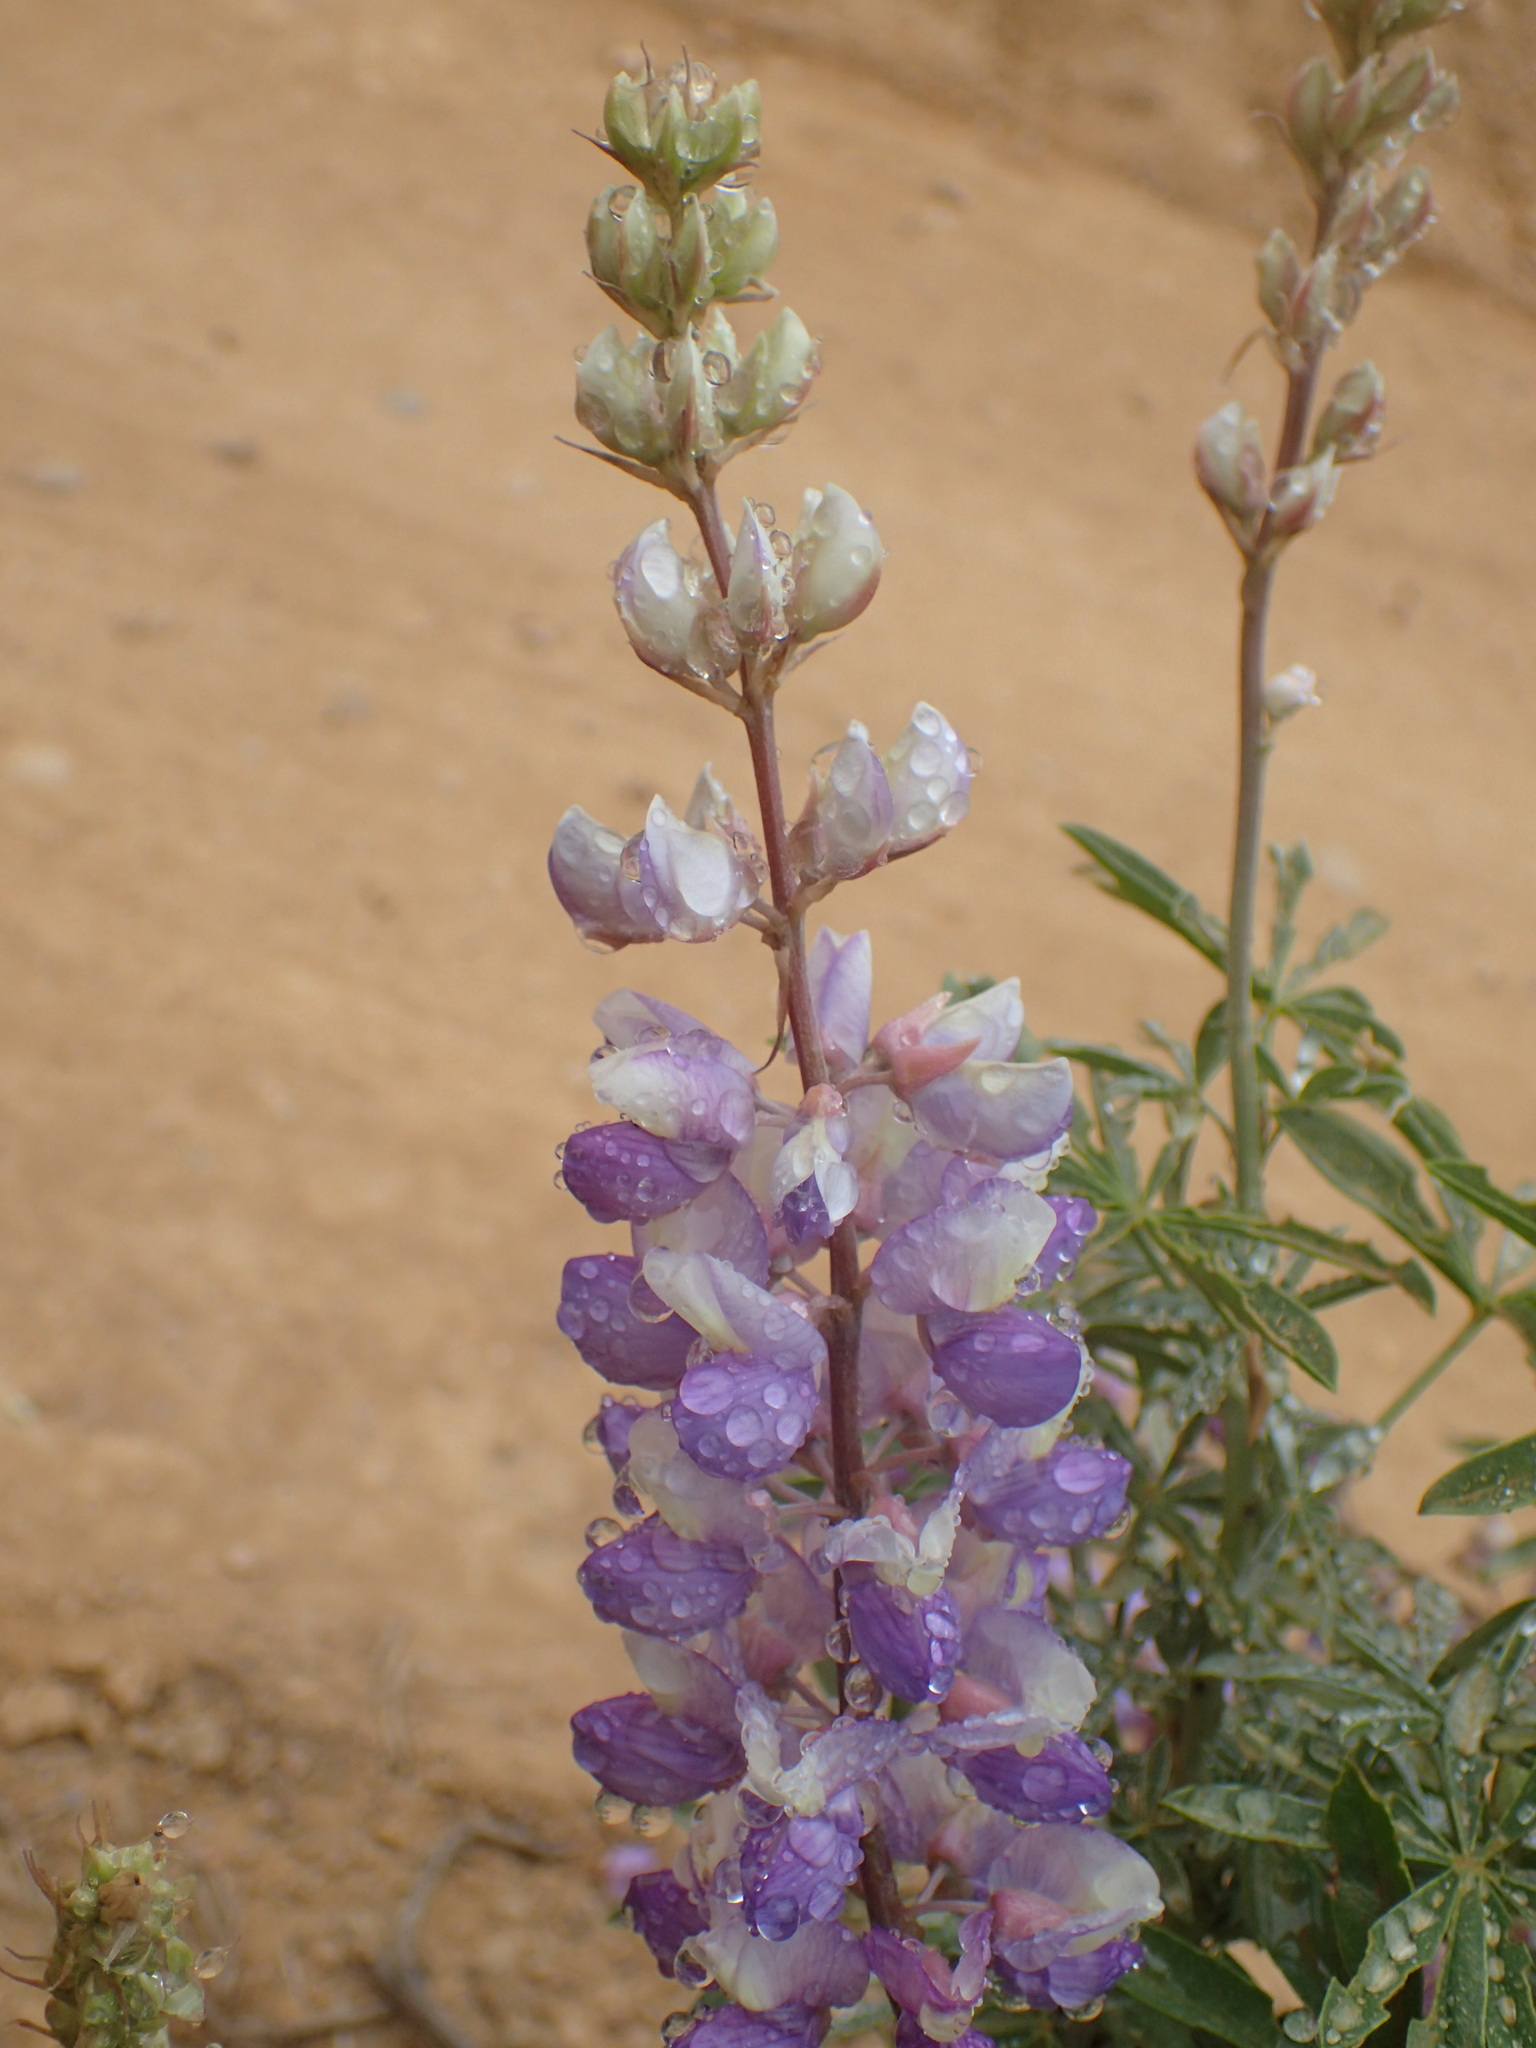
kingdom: Plantae
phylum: Tracheophyta
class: Magnoliopsida
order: Fabales
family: Fabaceae
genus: Lupinus
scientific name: Lupinus albifrons
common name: Foothill lupine
